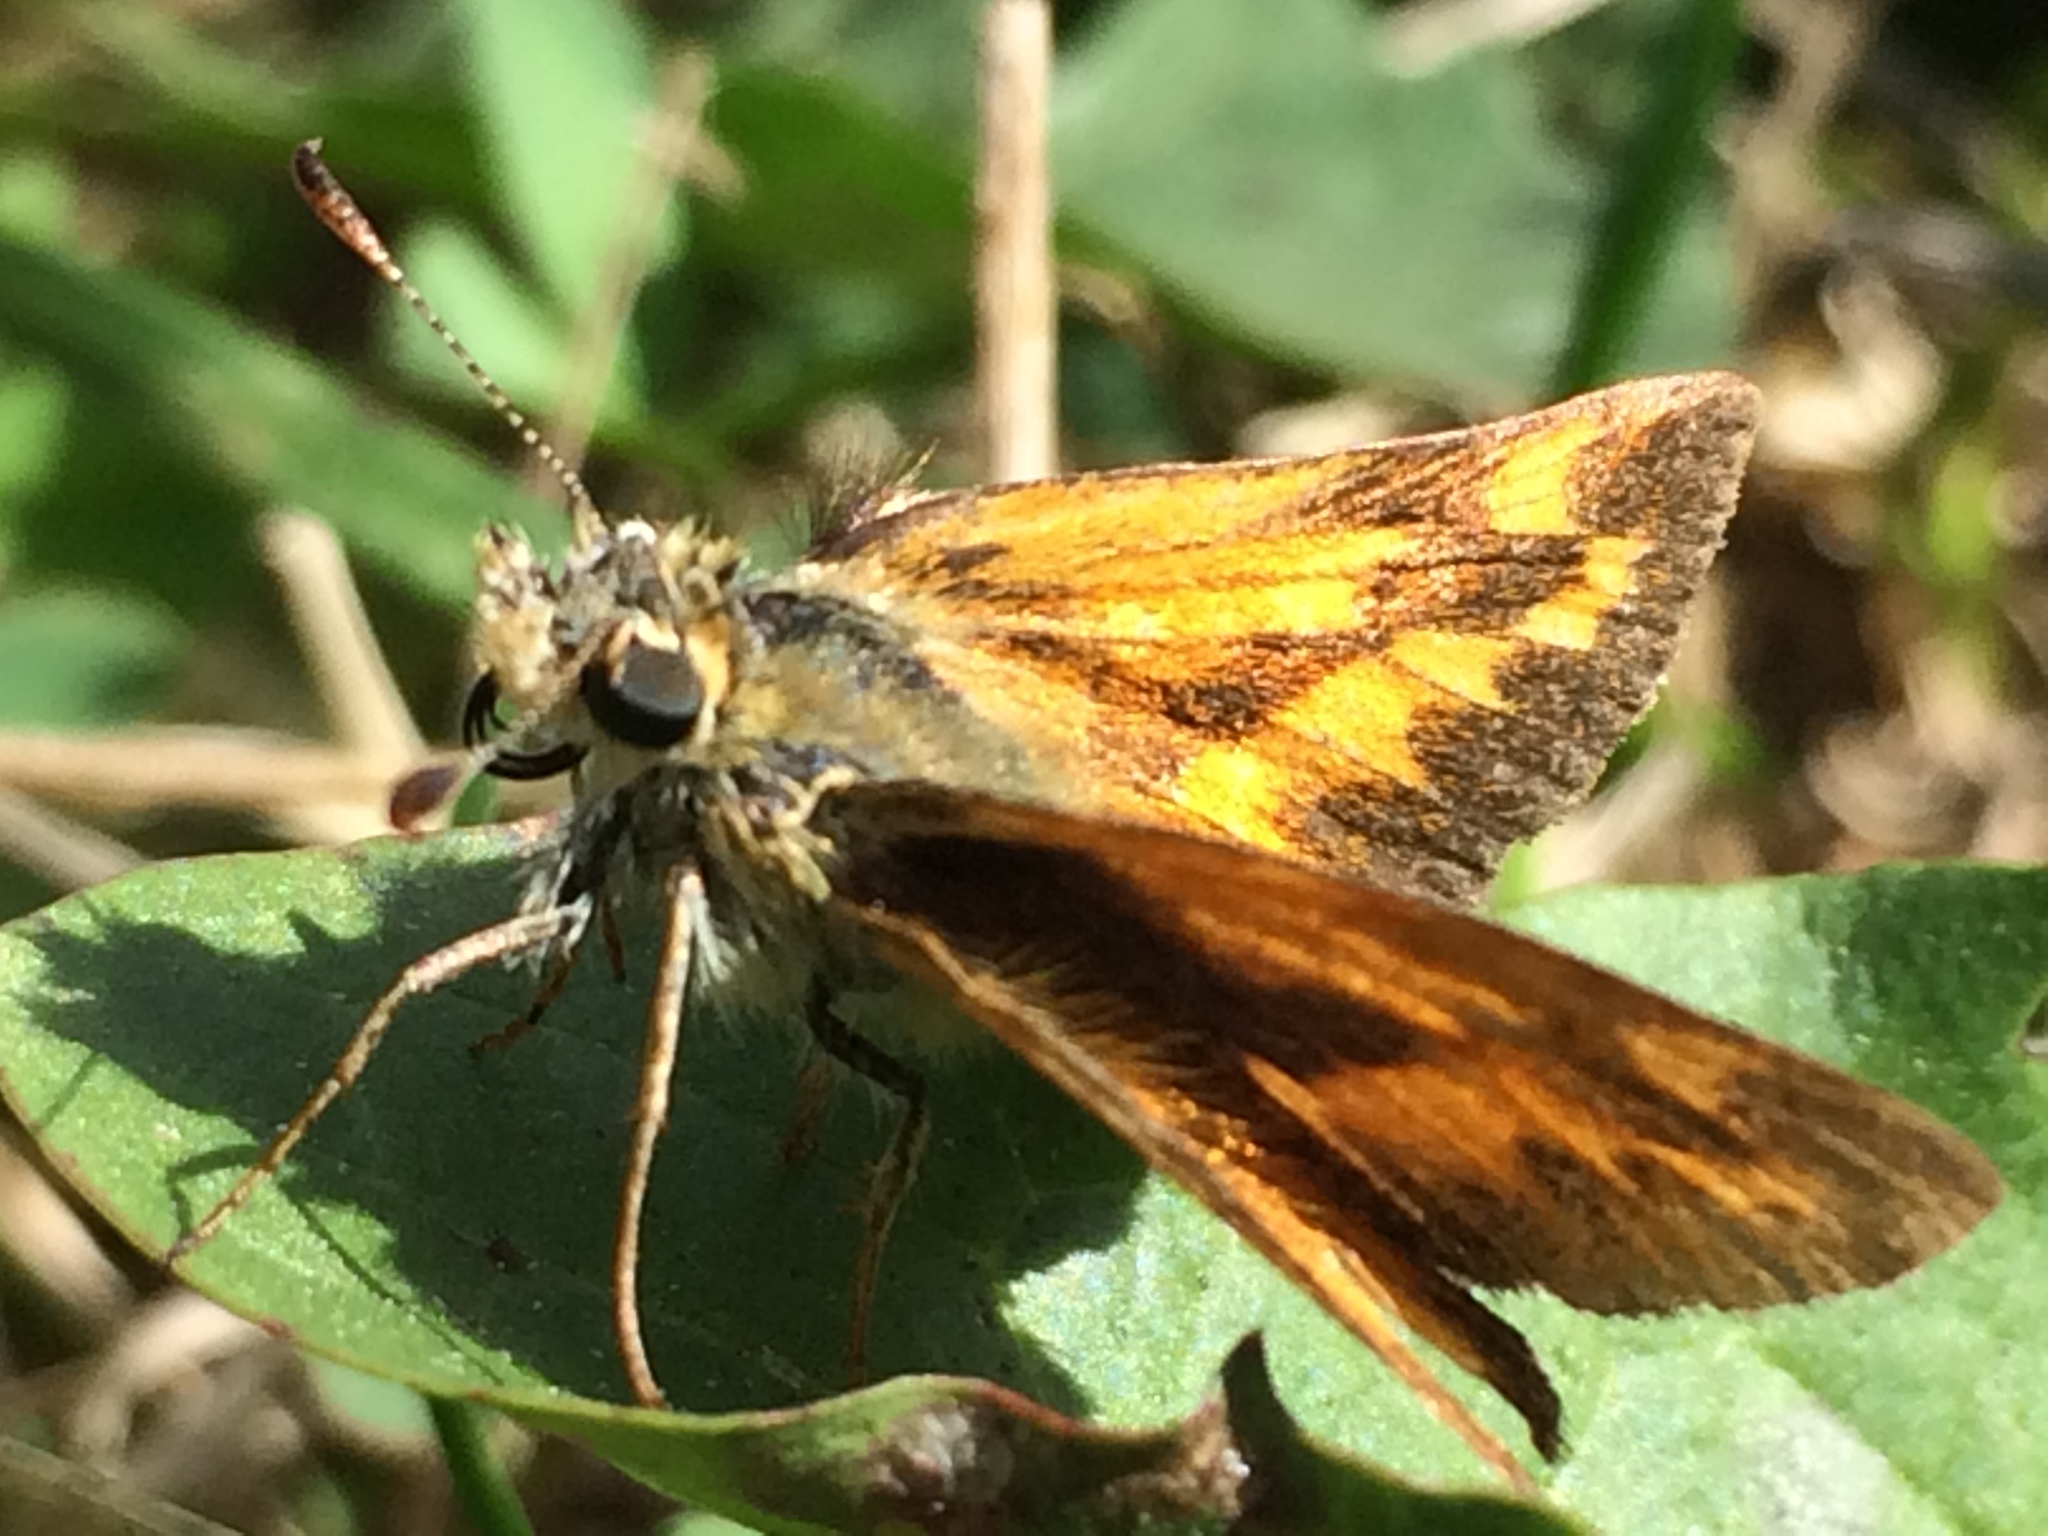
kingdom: Animalia
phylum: Arthropoda
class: Insecta
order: Lepidoptera
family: Hesperiidae
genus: Ochlodes
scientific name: Ochlodes sylvanoides
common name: Woodland skipper
